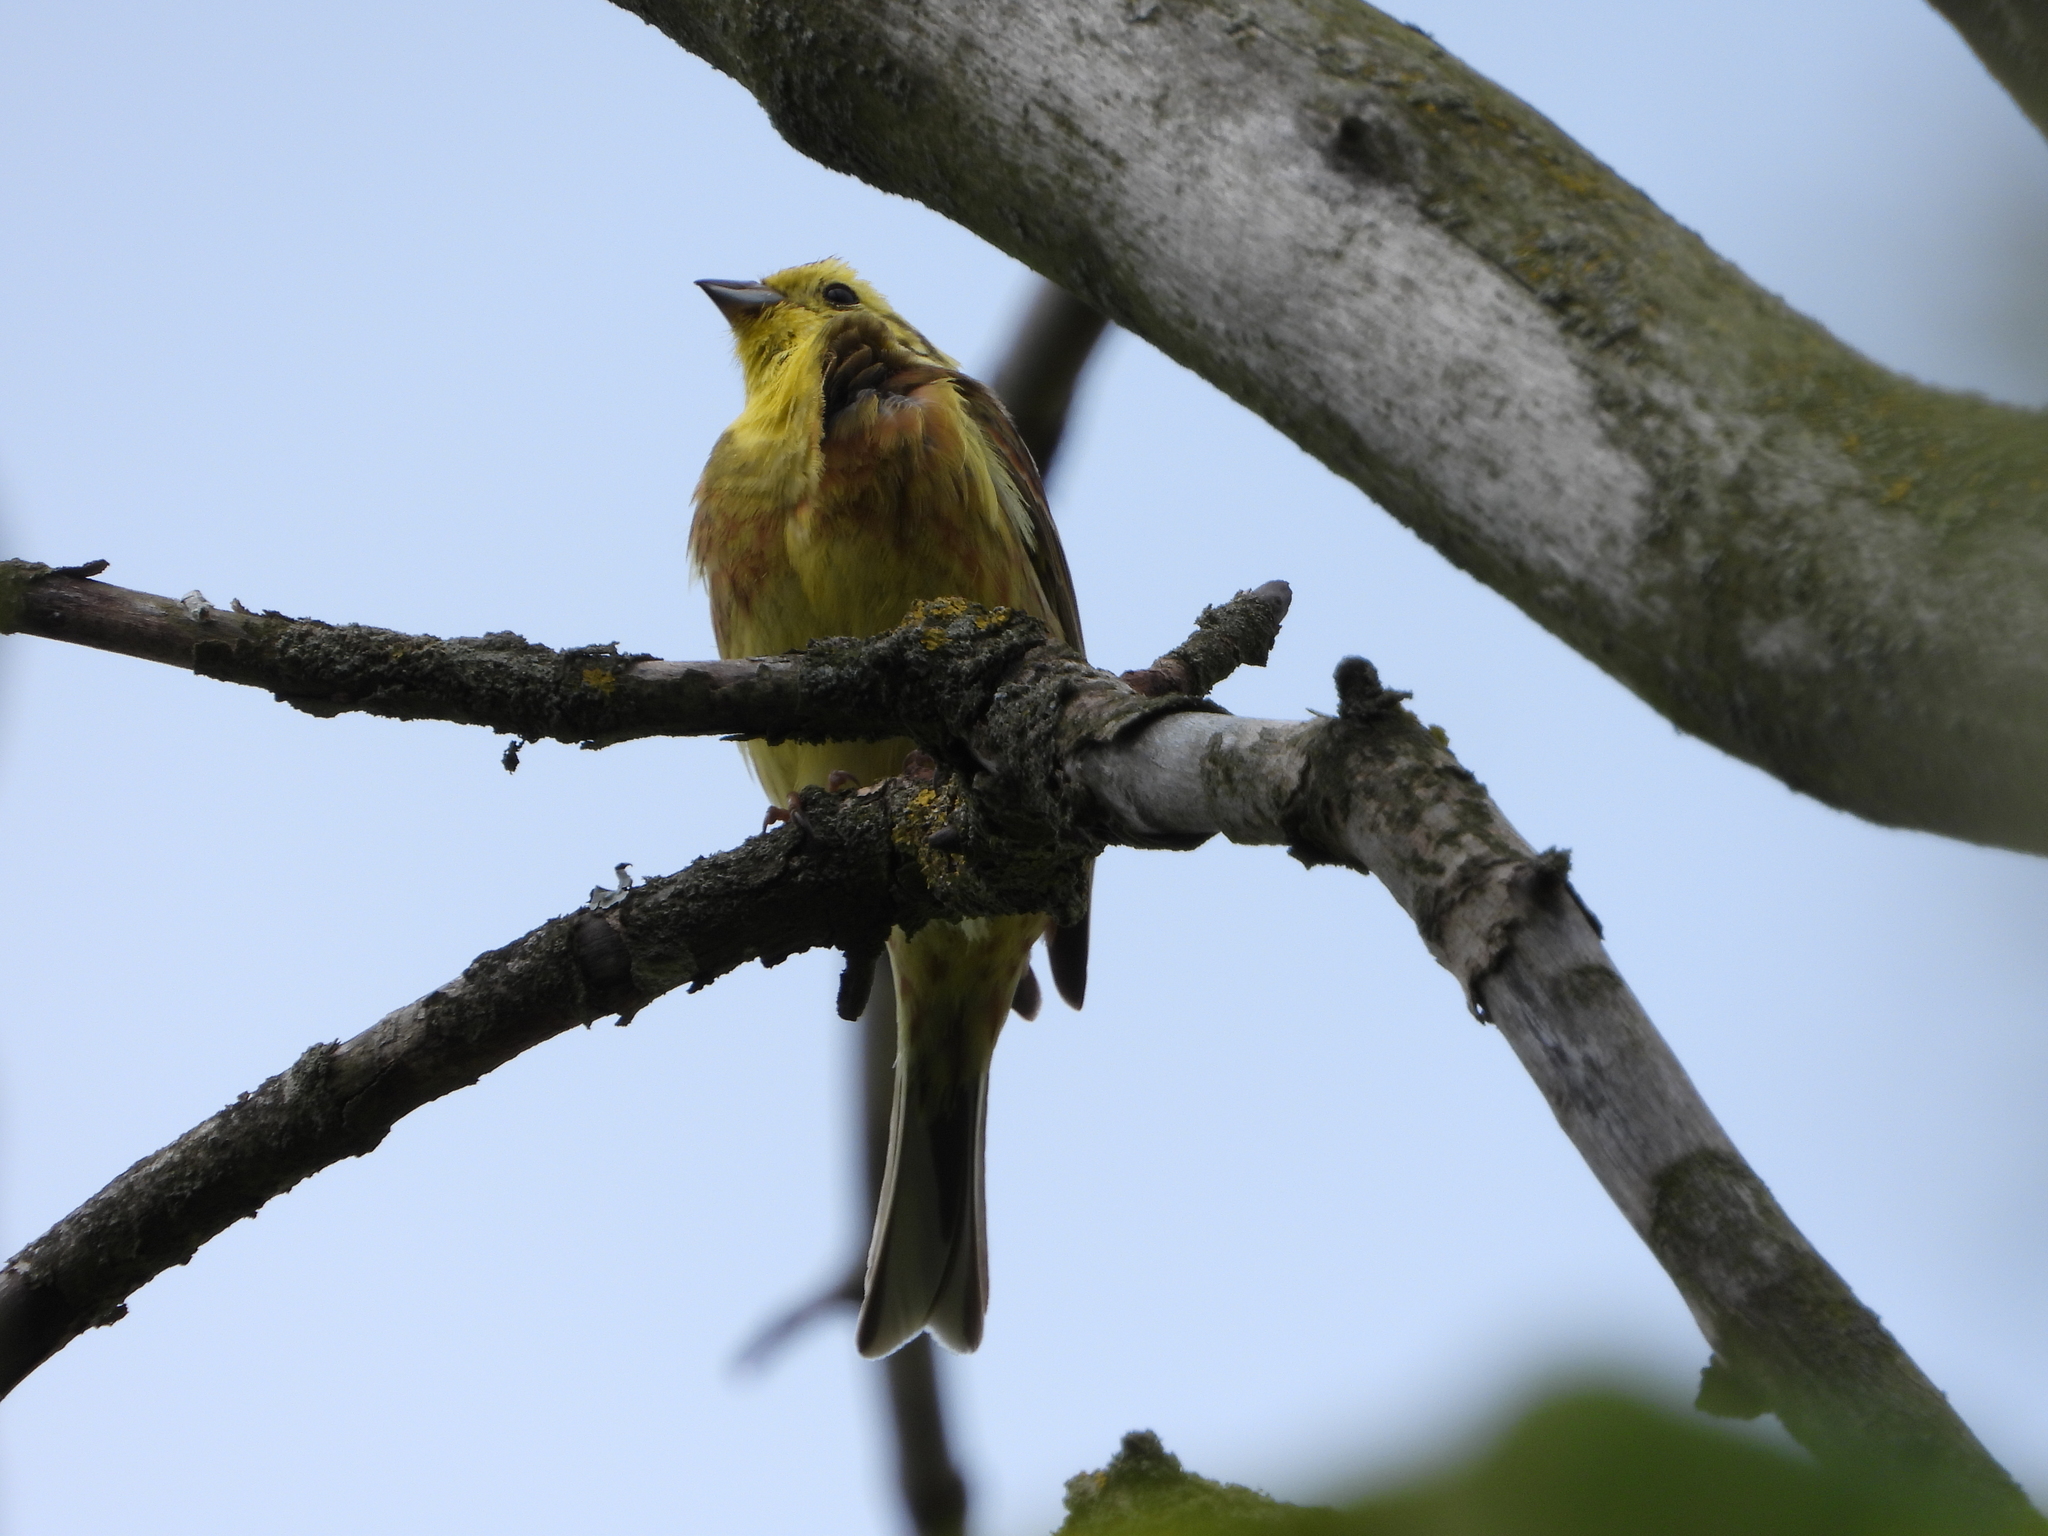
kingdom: Animalia
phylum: Chordata
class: Aves
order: Passeriformes
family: Emberizidae
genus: Emberiza
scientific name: Emberiza citrinella
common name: Yellowhammer
